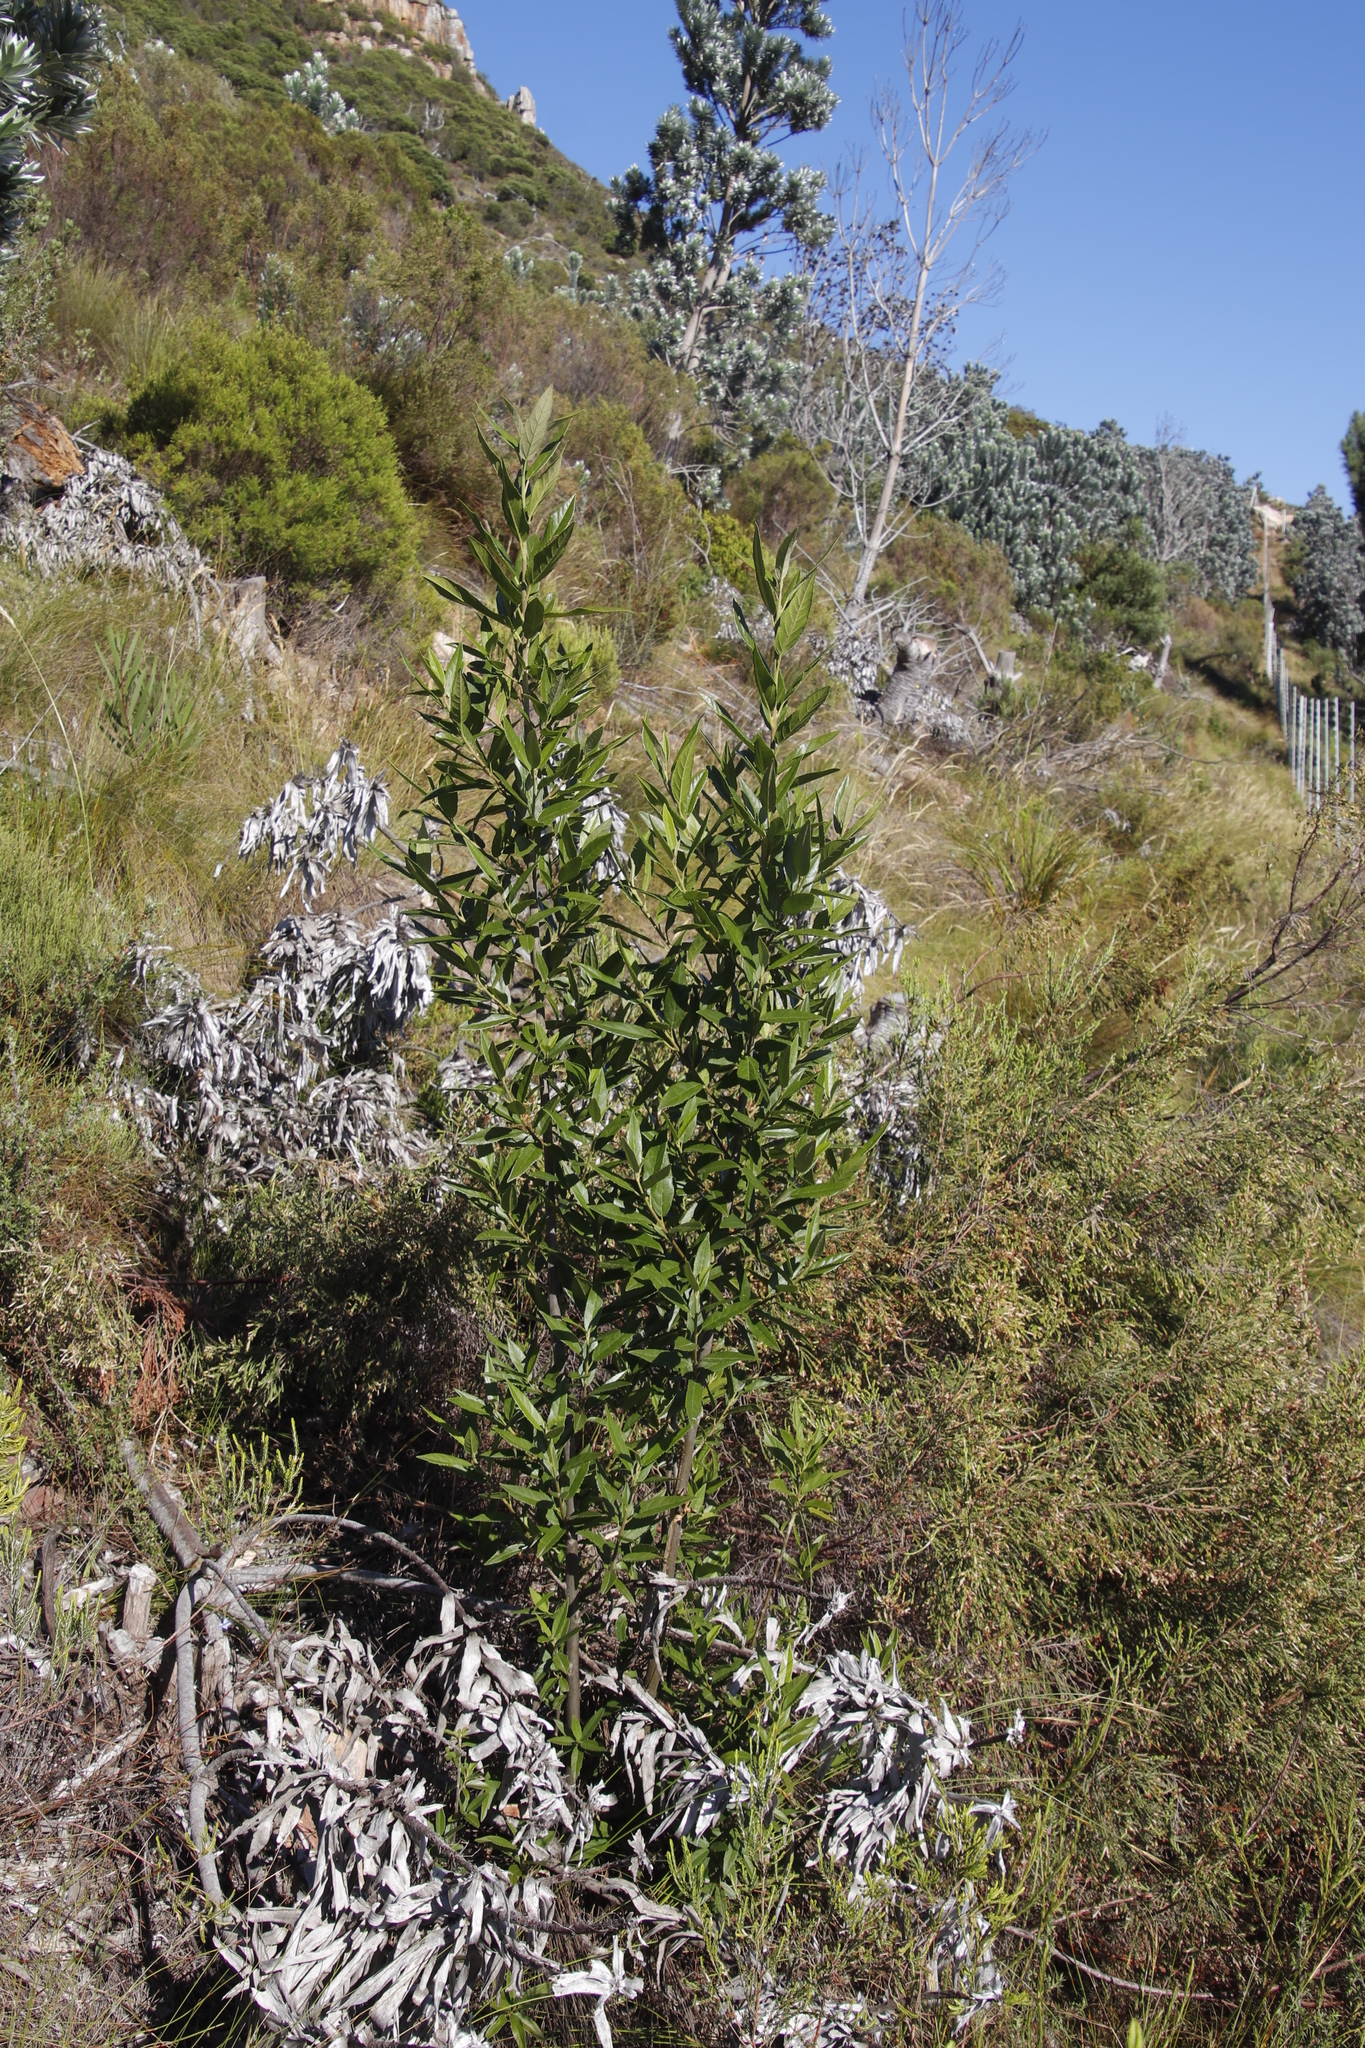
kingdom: Plantae
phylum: Tracheophyta
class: Magnoliopsida
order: Malpighiales
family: Achariaceae
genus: Kiggelaria
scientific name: Kiggelaria africana
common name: Wild peach
